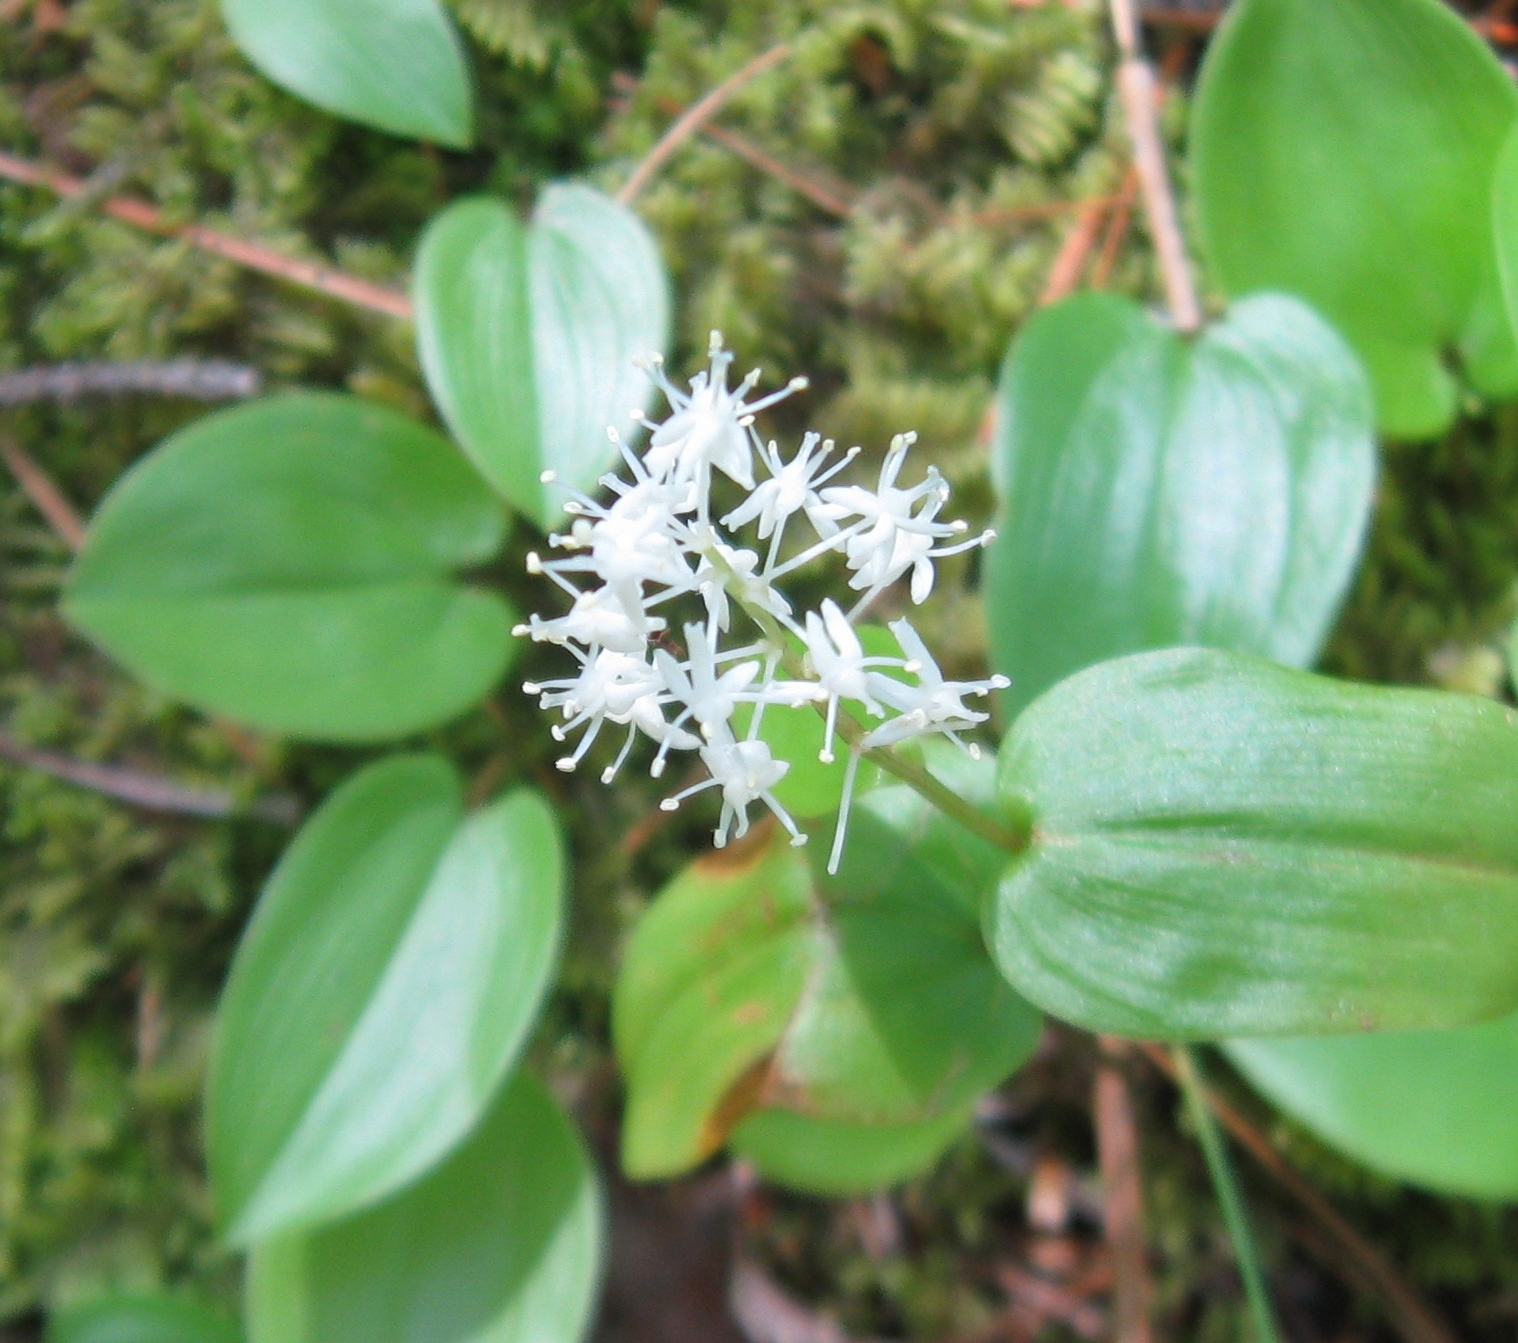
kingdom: Plantae
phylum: Tracheophyta
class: Liliopsida
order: Asparagales
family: Asparagaceae
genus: Maianthemum
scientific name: Maianthemum canadense
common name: False lily-of-the-valley
